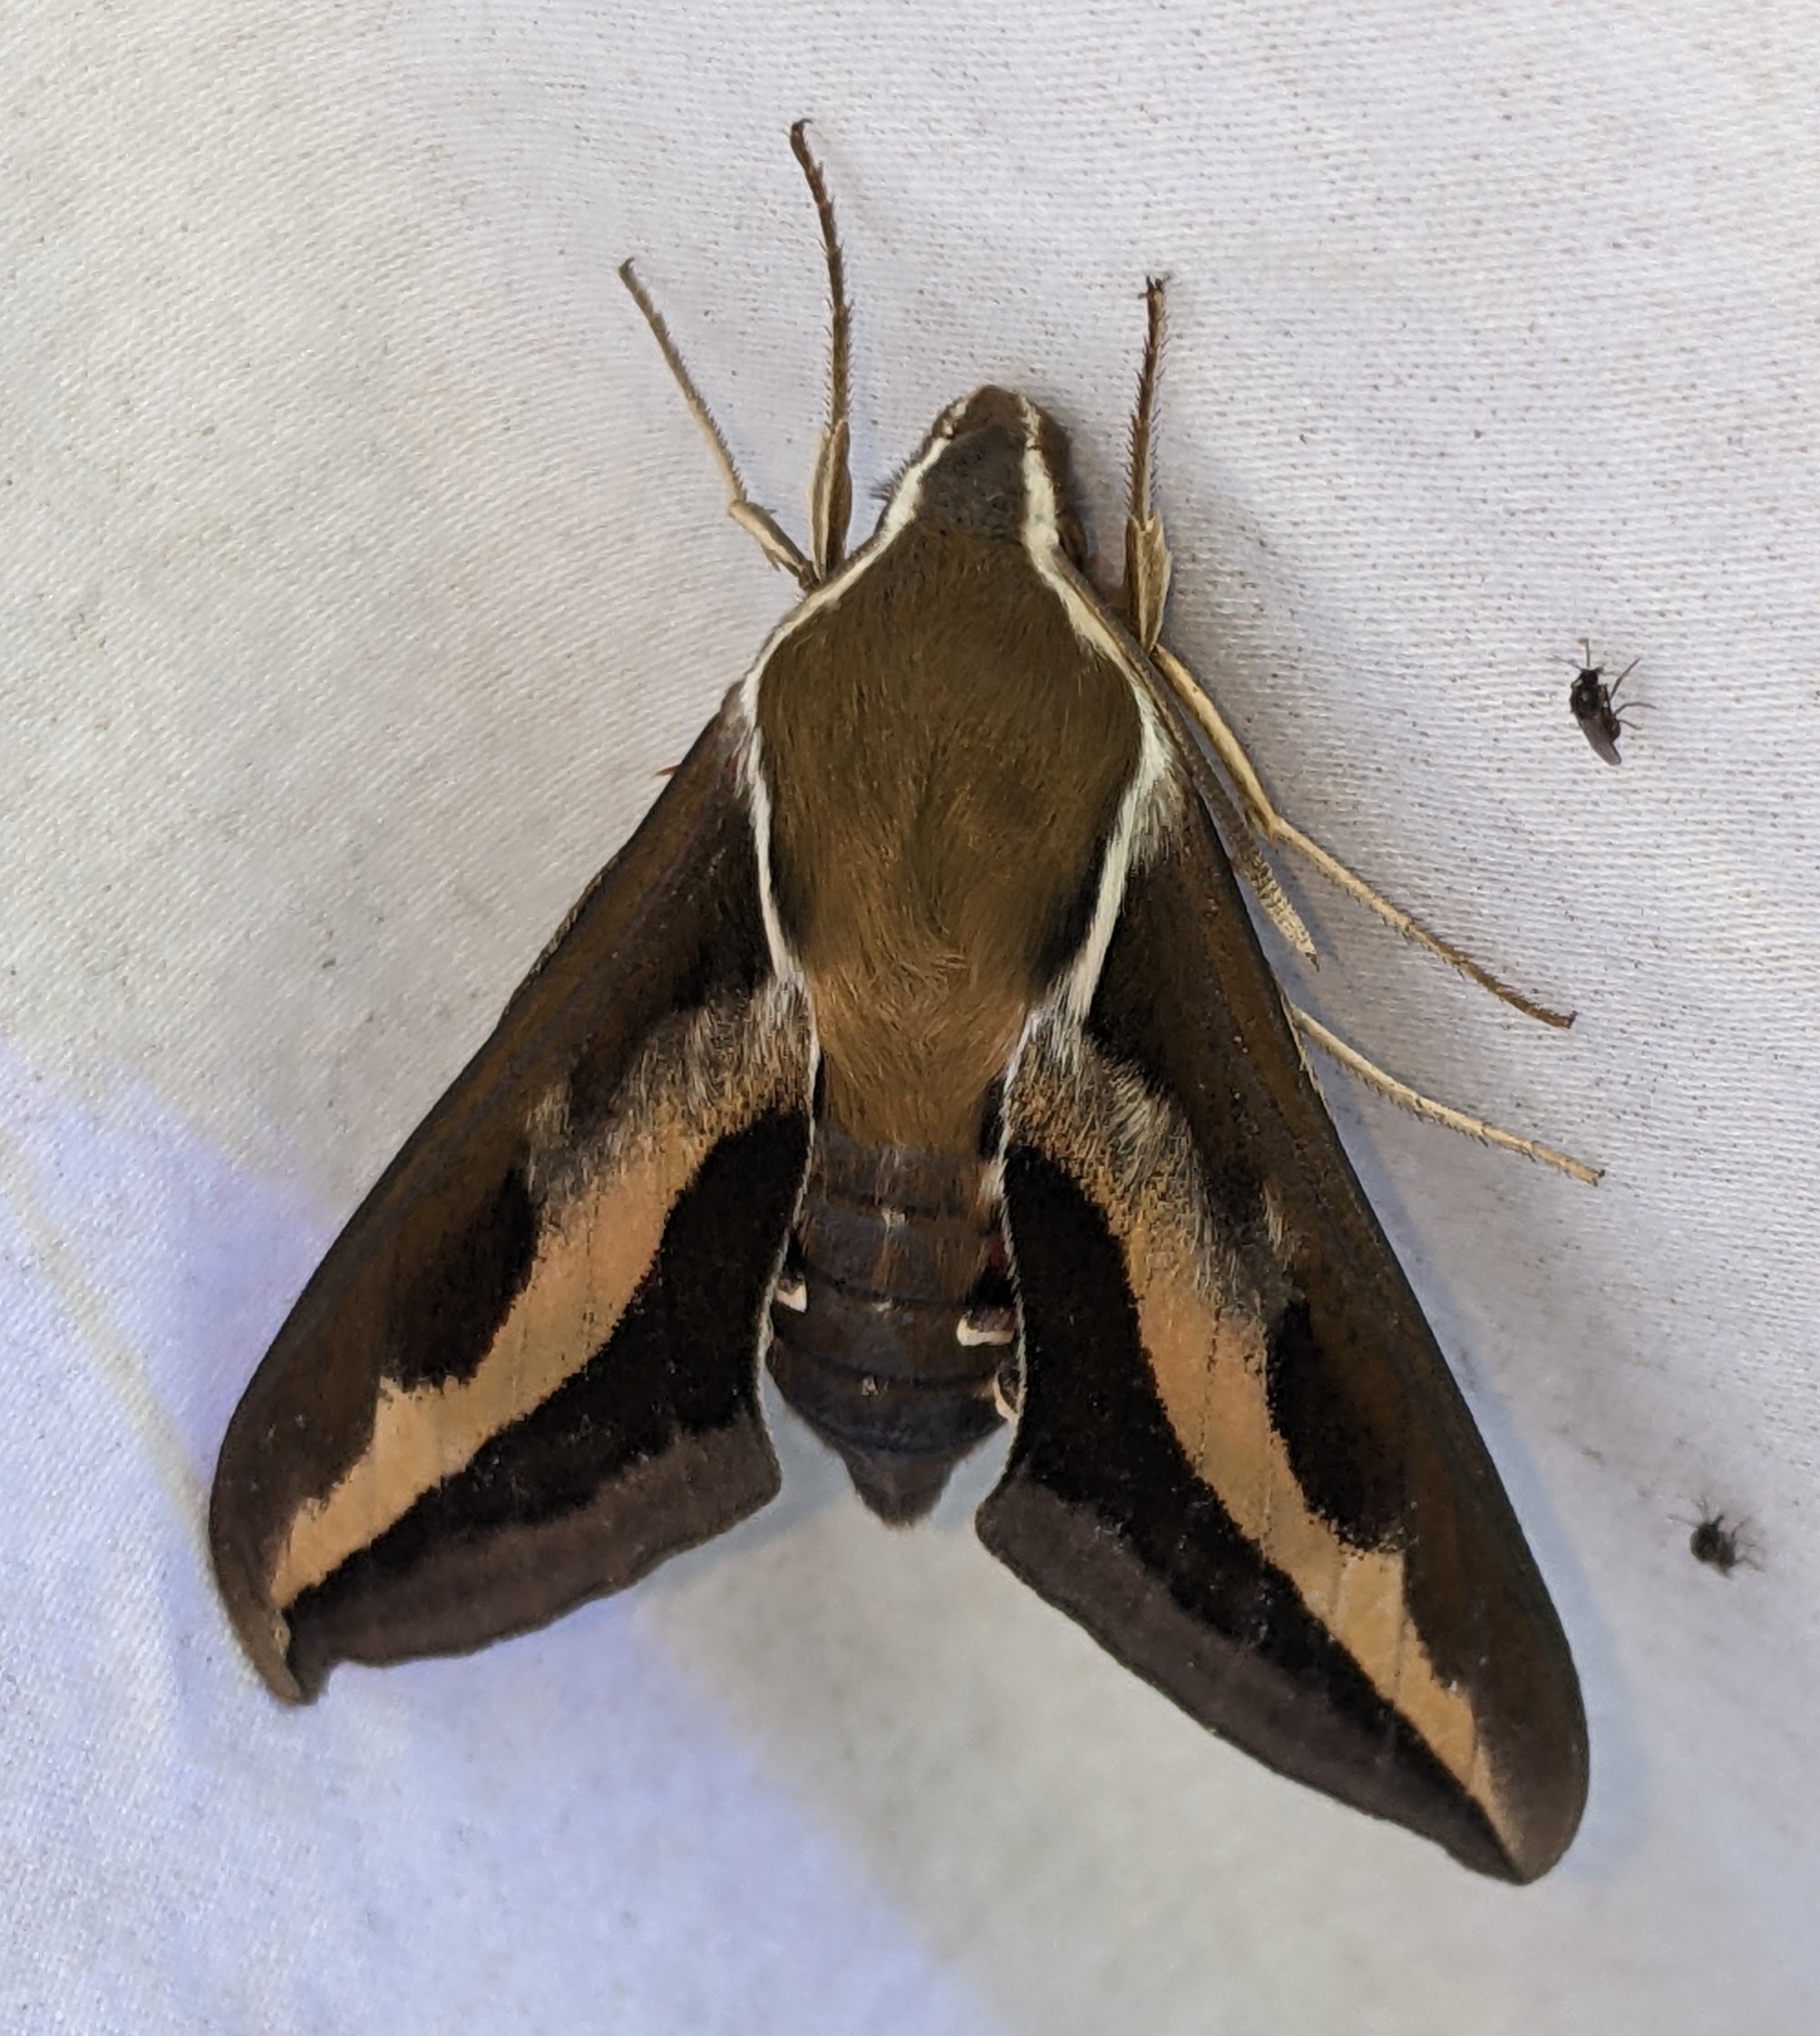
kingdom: Animalia
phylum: Arthropoda
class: Insecta
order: Lepidoptera
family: Sphingidae
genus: Hyles
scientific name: Hyles gallii
